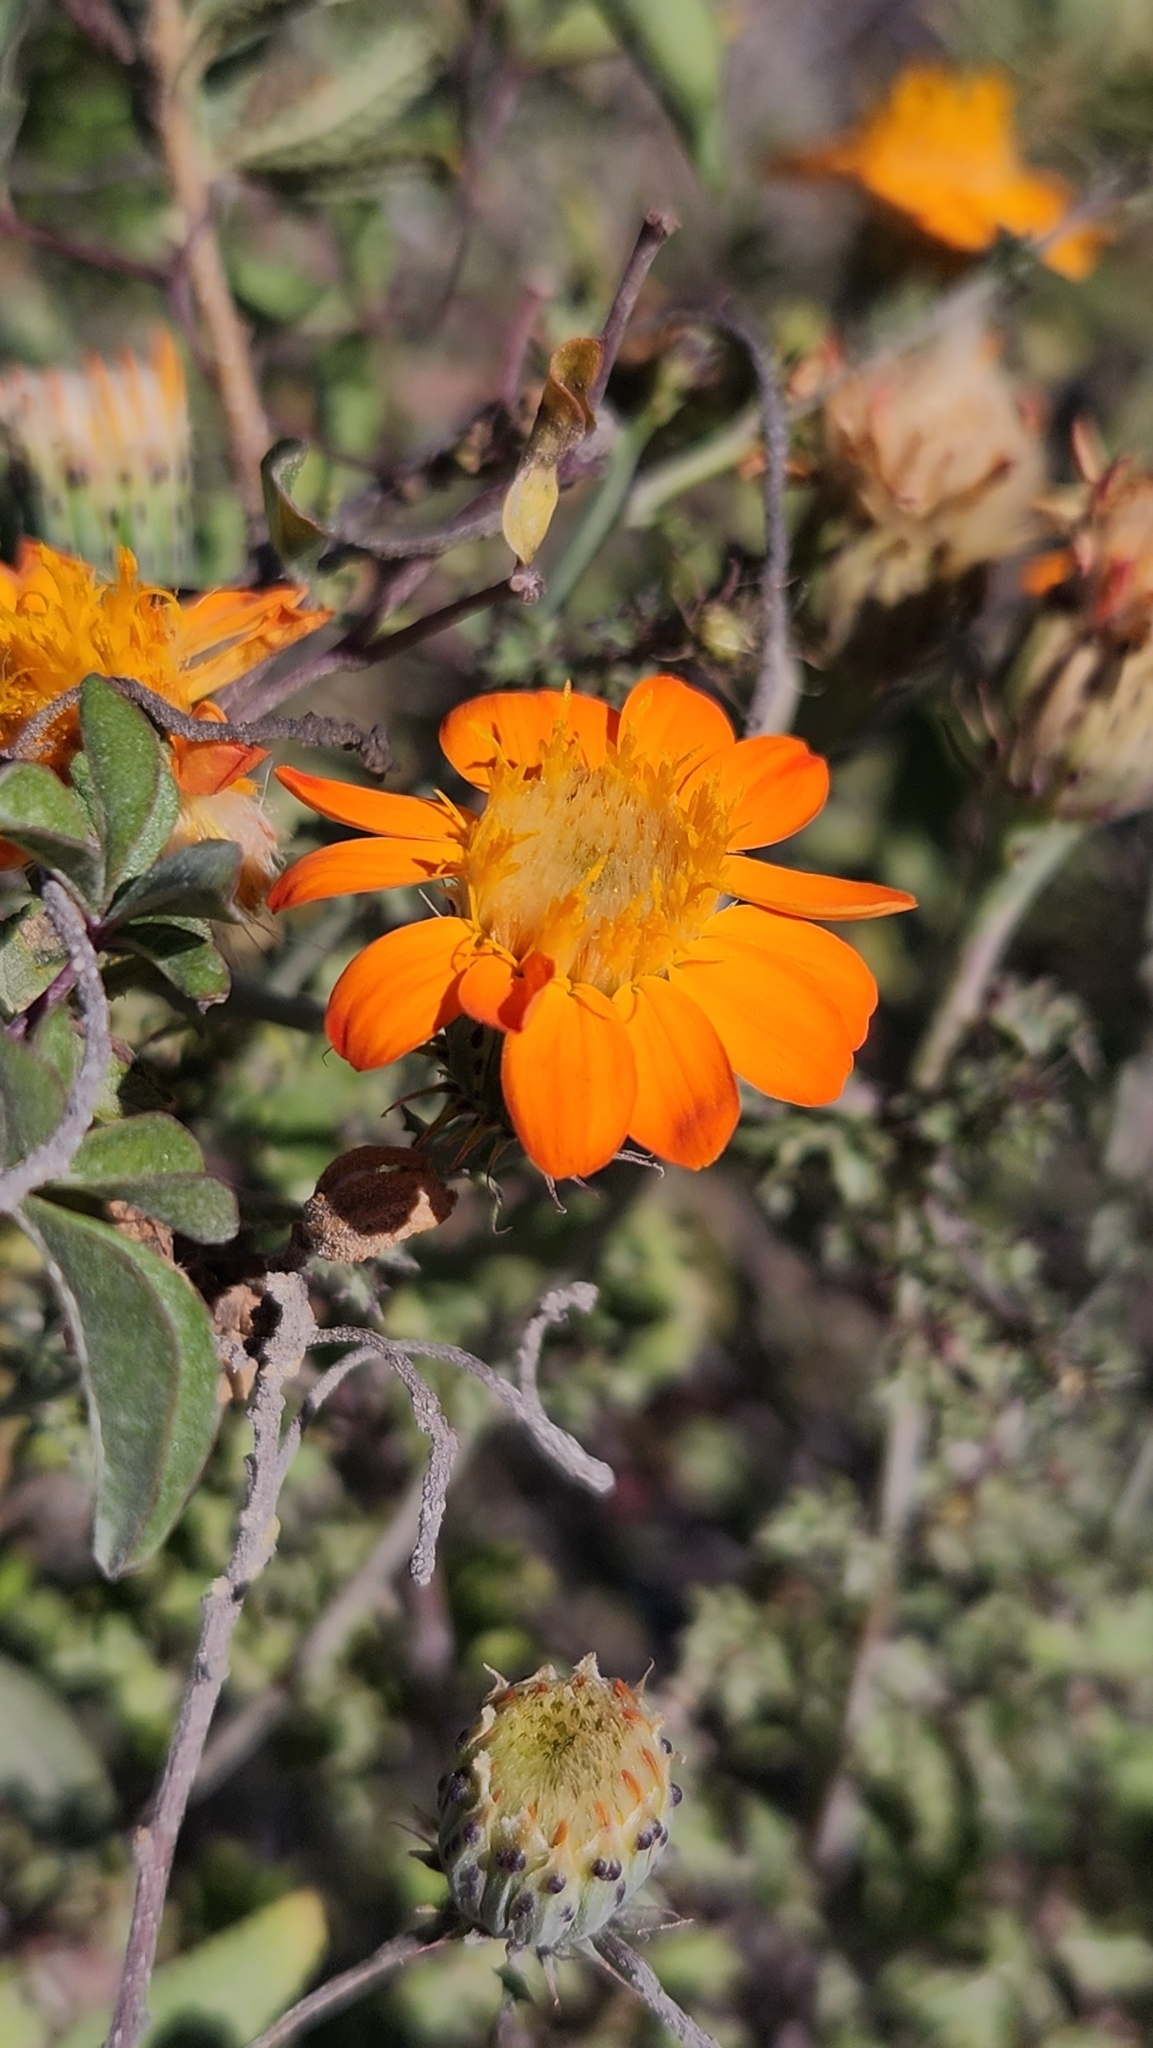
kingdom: Plantae
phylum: Tracheophyta
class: Magnoliopsida
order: Asterales
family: Asteraceae
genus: Adenophyllum
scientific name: Adenophyllum speciosum
